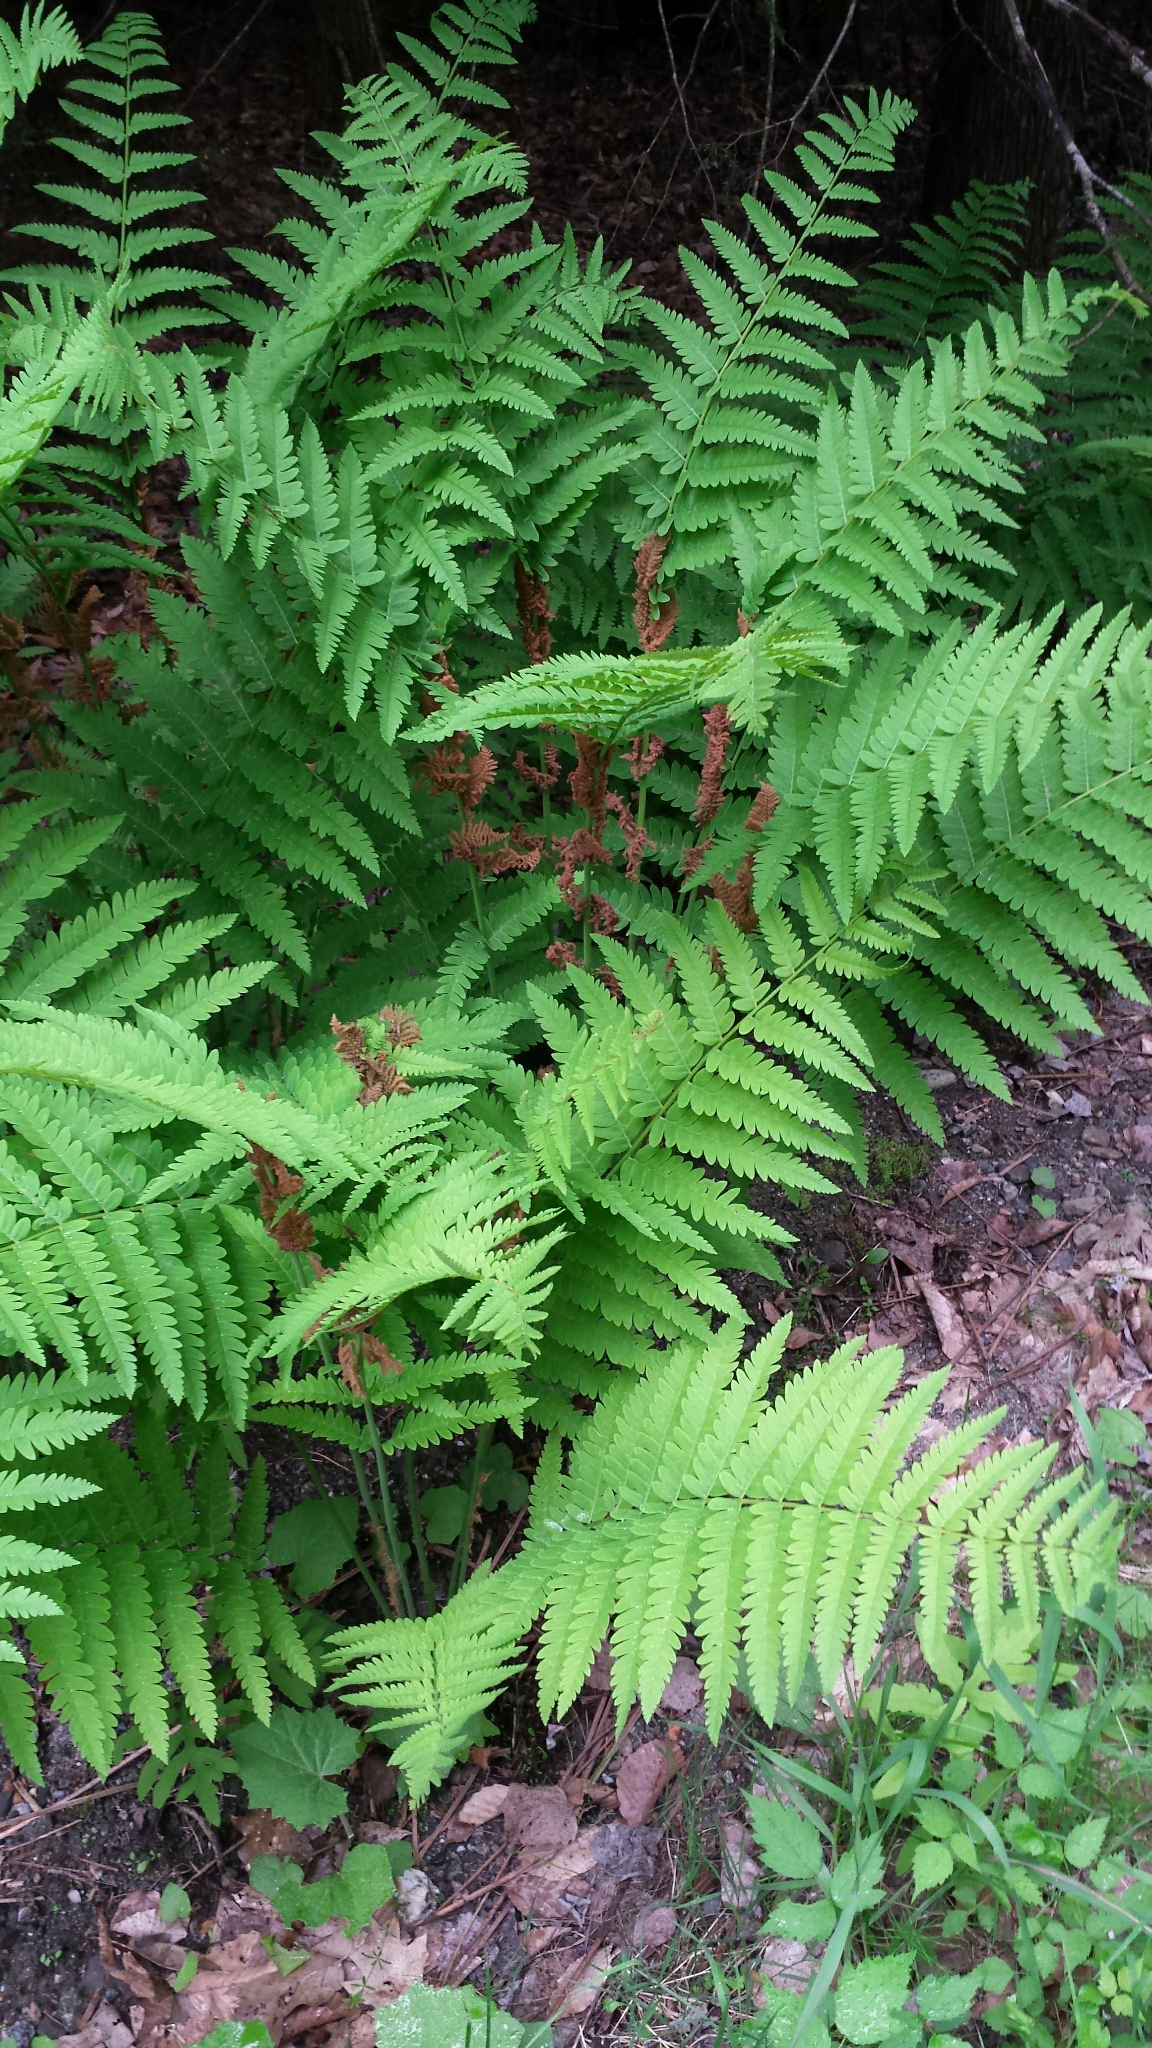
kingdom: Plantae
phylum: Tracheophyta
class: Polypodiopsida
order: Osmundales
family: Osmundaceae
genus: Claytosmunda
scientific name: Claytosmunda claytoniana
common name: Clayton's fern
